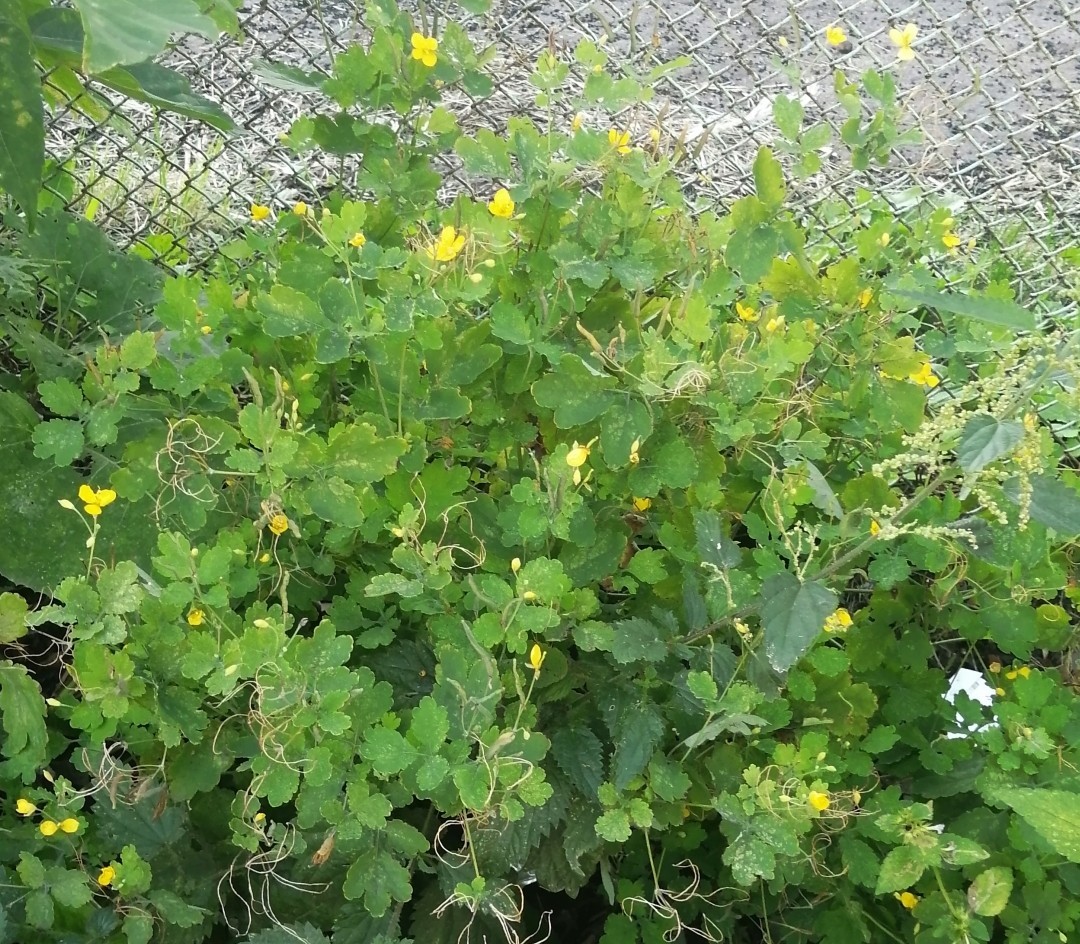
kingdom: Plantae
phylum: Tracheophyta
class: Magnoliopsida
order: Ranunculales
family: Papaveraceae
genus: Chelidonium
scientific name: Chelidonium majus
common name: Greater celandine
